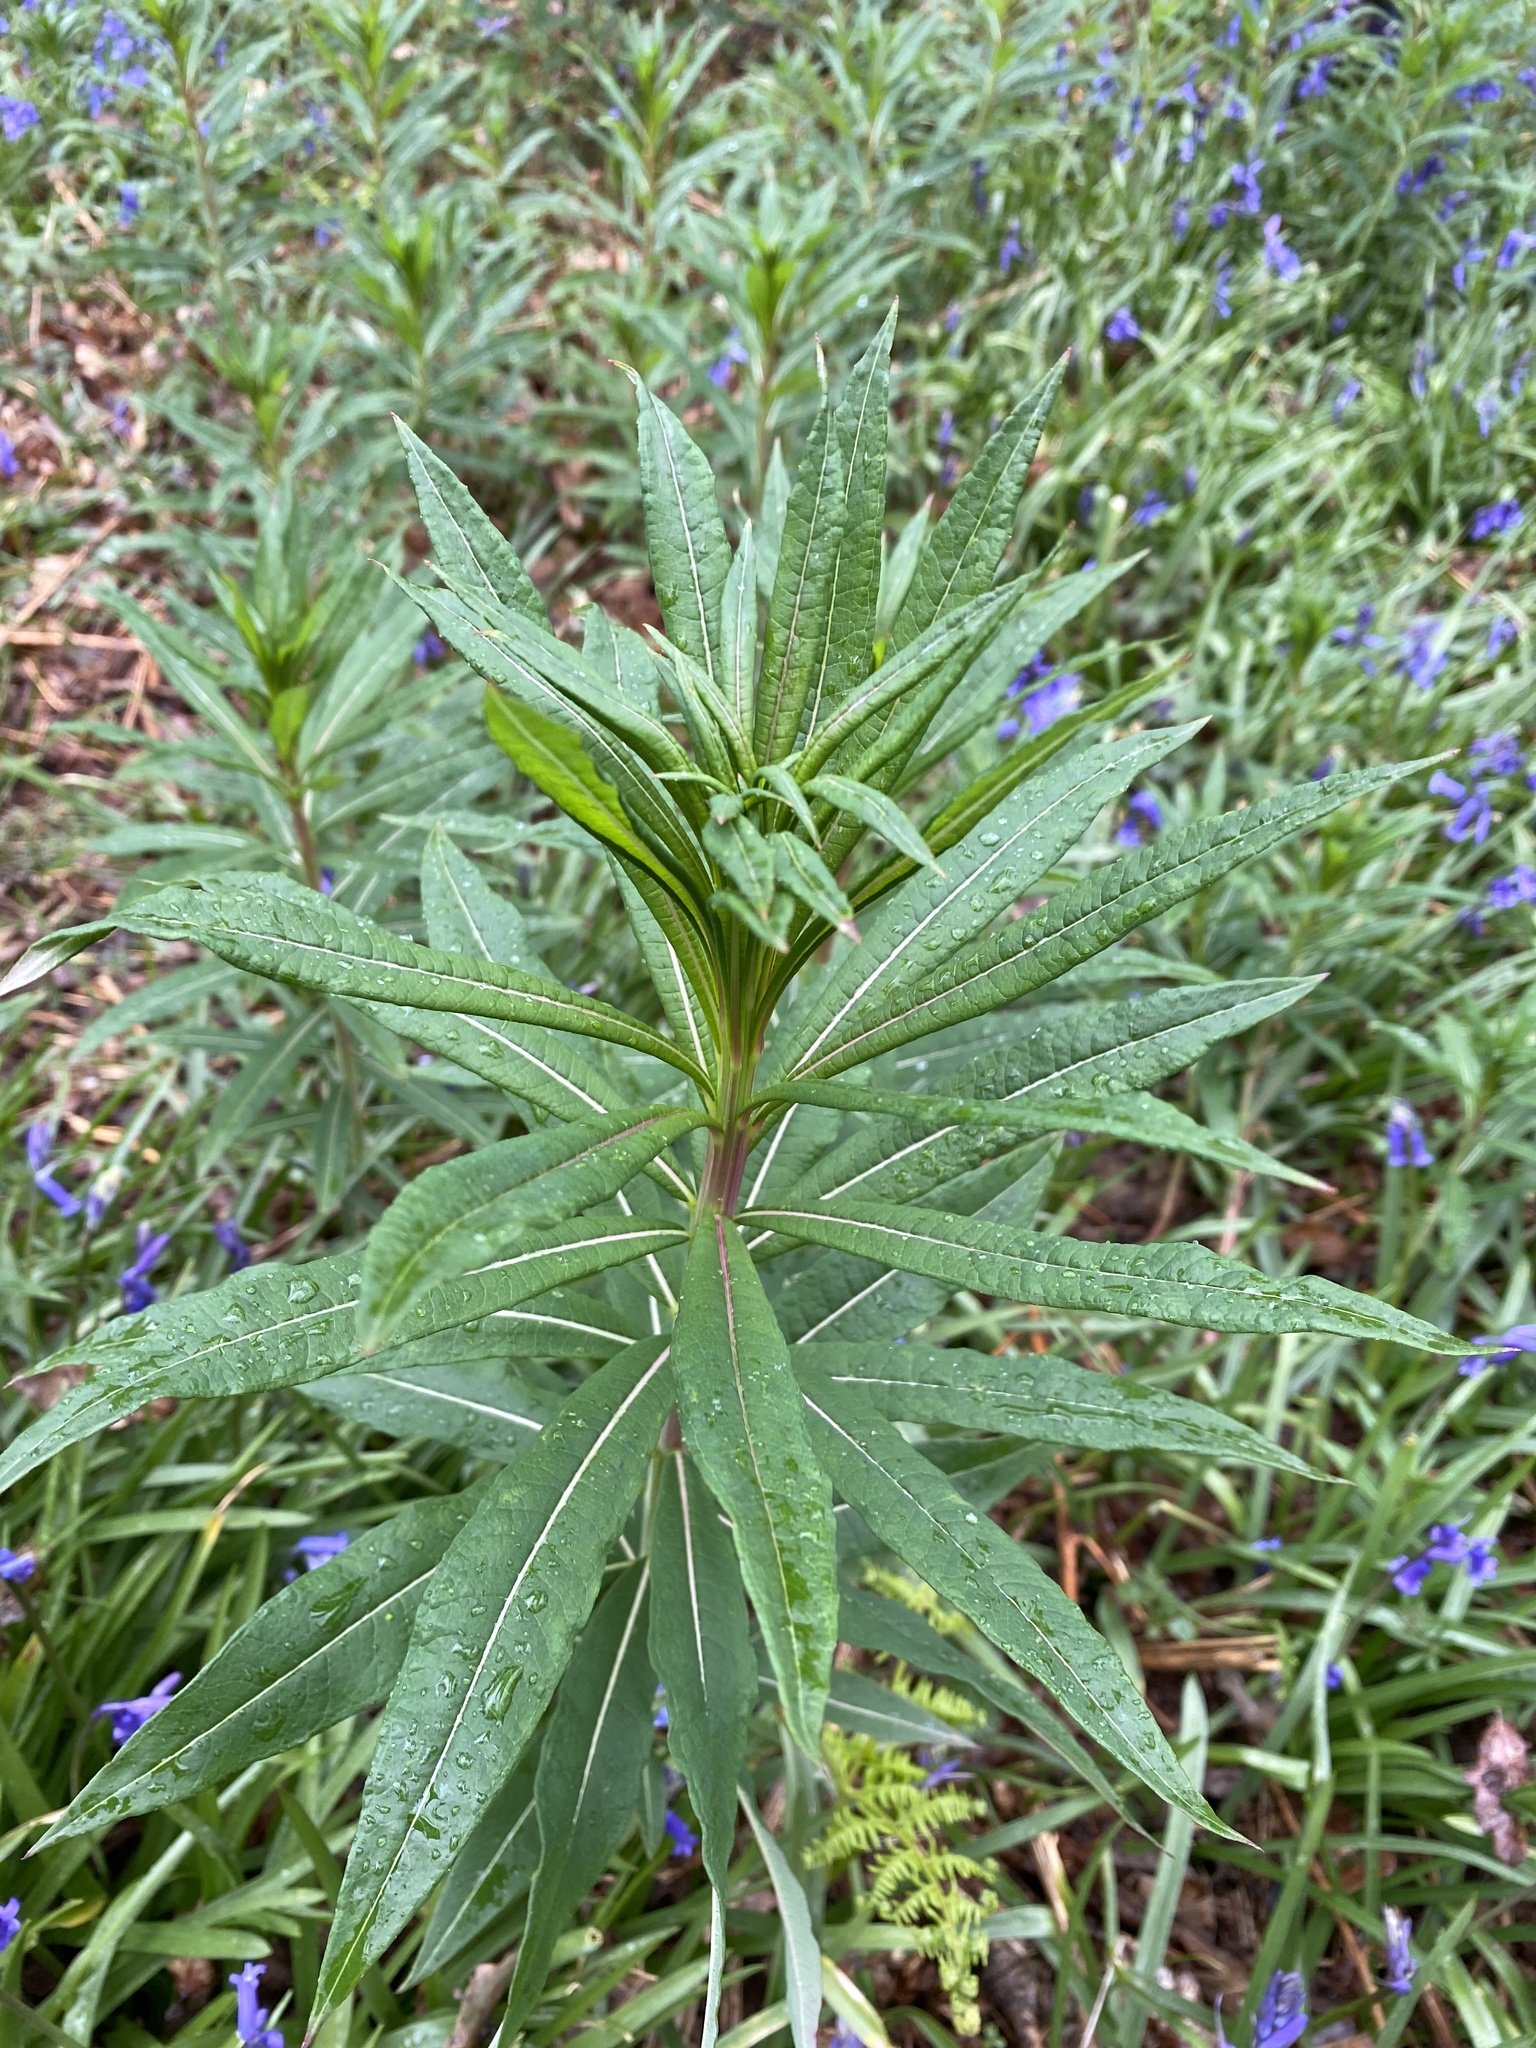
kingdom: Plantae
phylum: Tracheophyta
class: Magnoliopsida
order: Myrtales
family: Onagraceae
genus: Chamaenerion
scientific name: Chamaenerion angustifolium
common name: Fireweed
